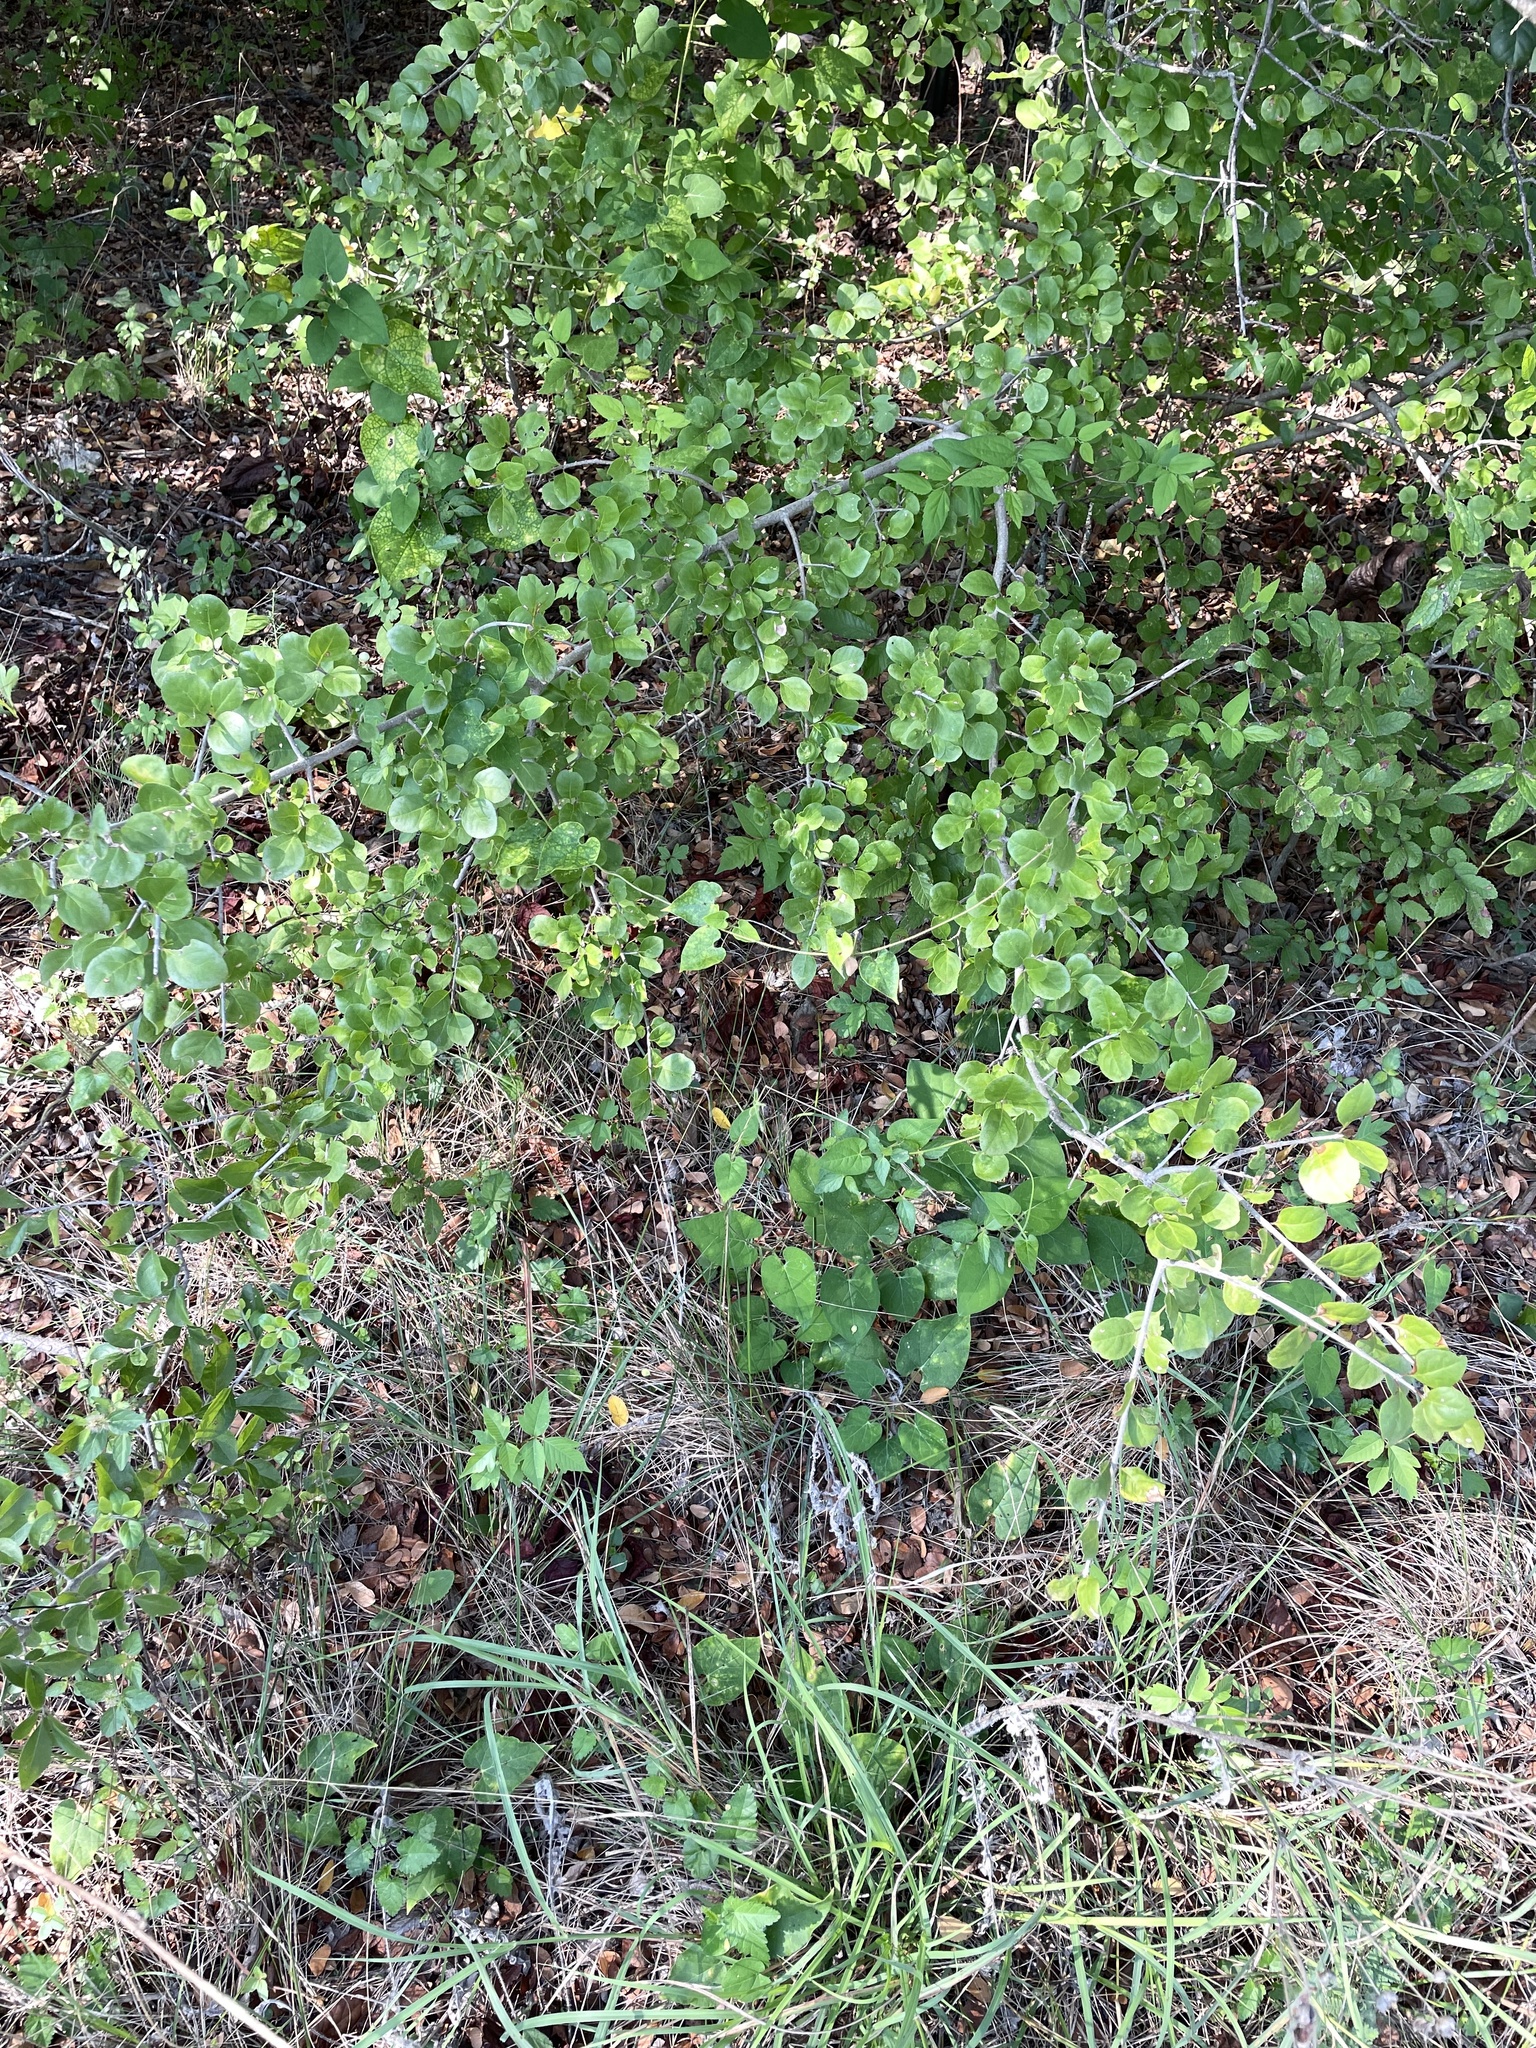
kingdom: Plantae
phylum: Tracheophyta
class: Magnoliopsida
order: Lamiales
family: Oleaceae
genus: Forestiera
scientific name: Forestiera pubescens
